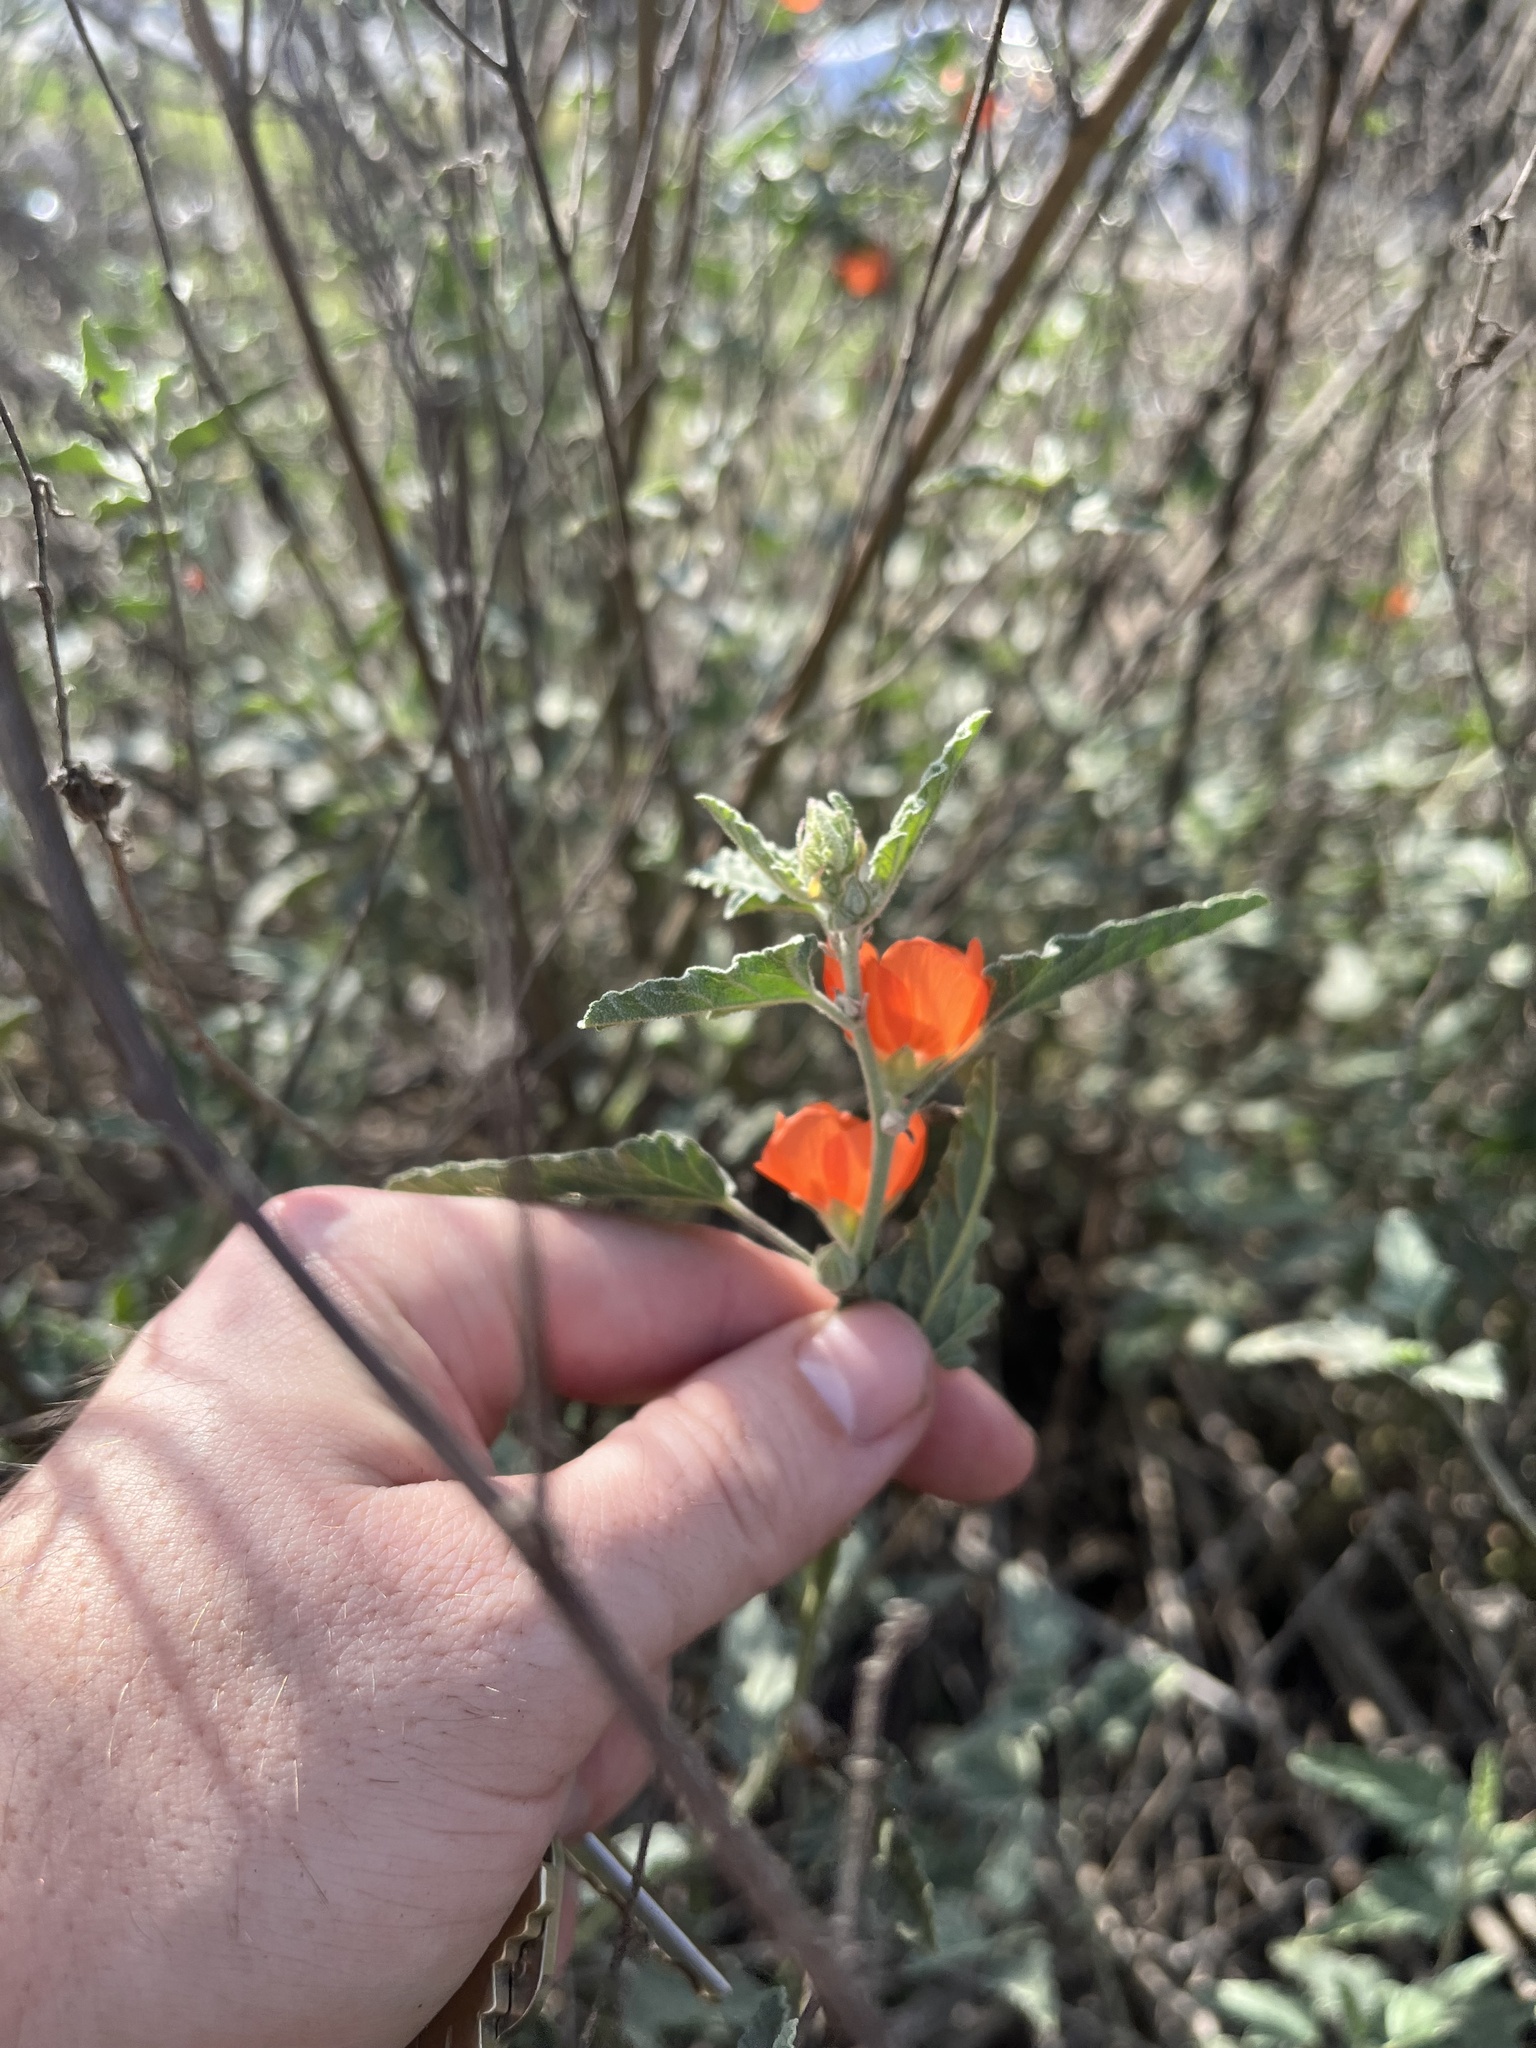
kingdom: Plantae
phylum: Tracheophyta
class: Magnoliopsida
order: Malvales
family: Malvaceae
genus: Sphaeralcea
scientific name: Sphaeralcea emoryi
